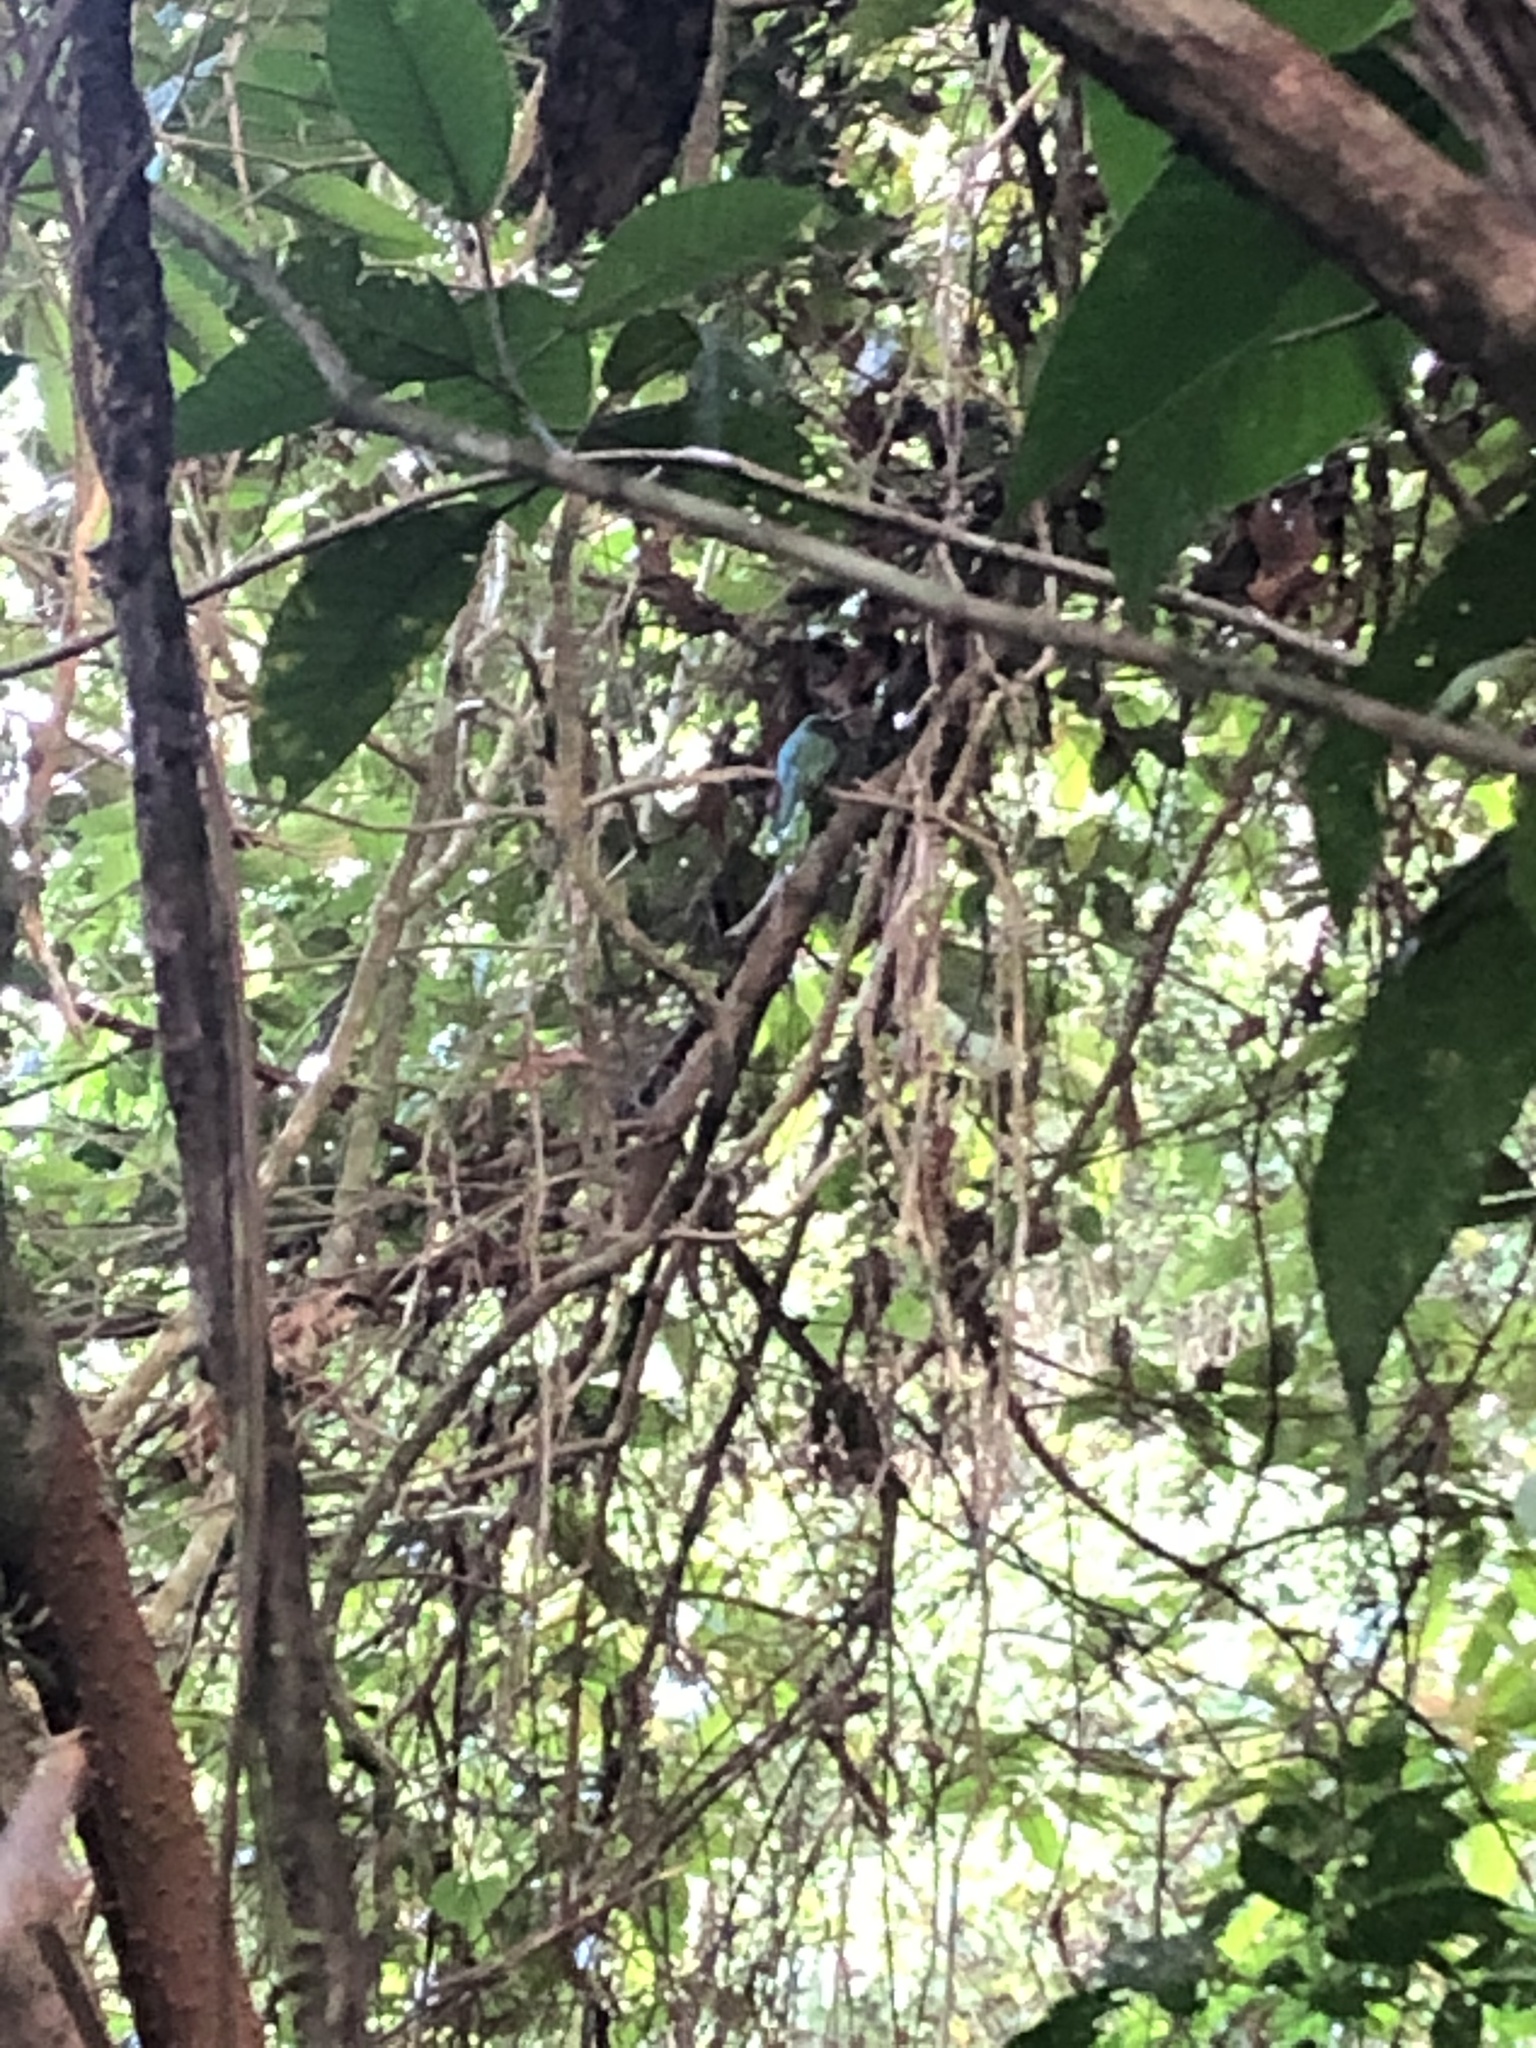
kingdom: Animalia
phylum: Chordata
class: Aves
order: Piciformes
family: Galbulidae
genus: Galbula
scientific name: Galbula cyanescens
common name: Bluish-fronted jacamar
